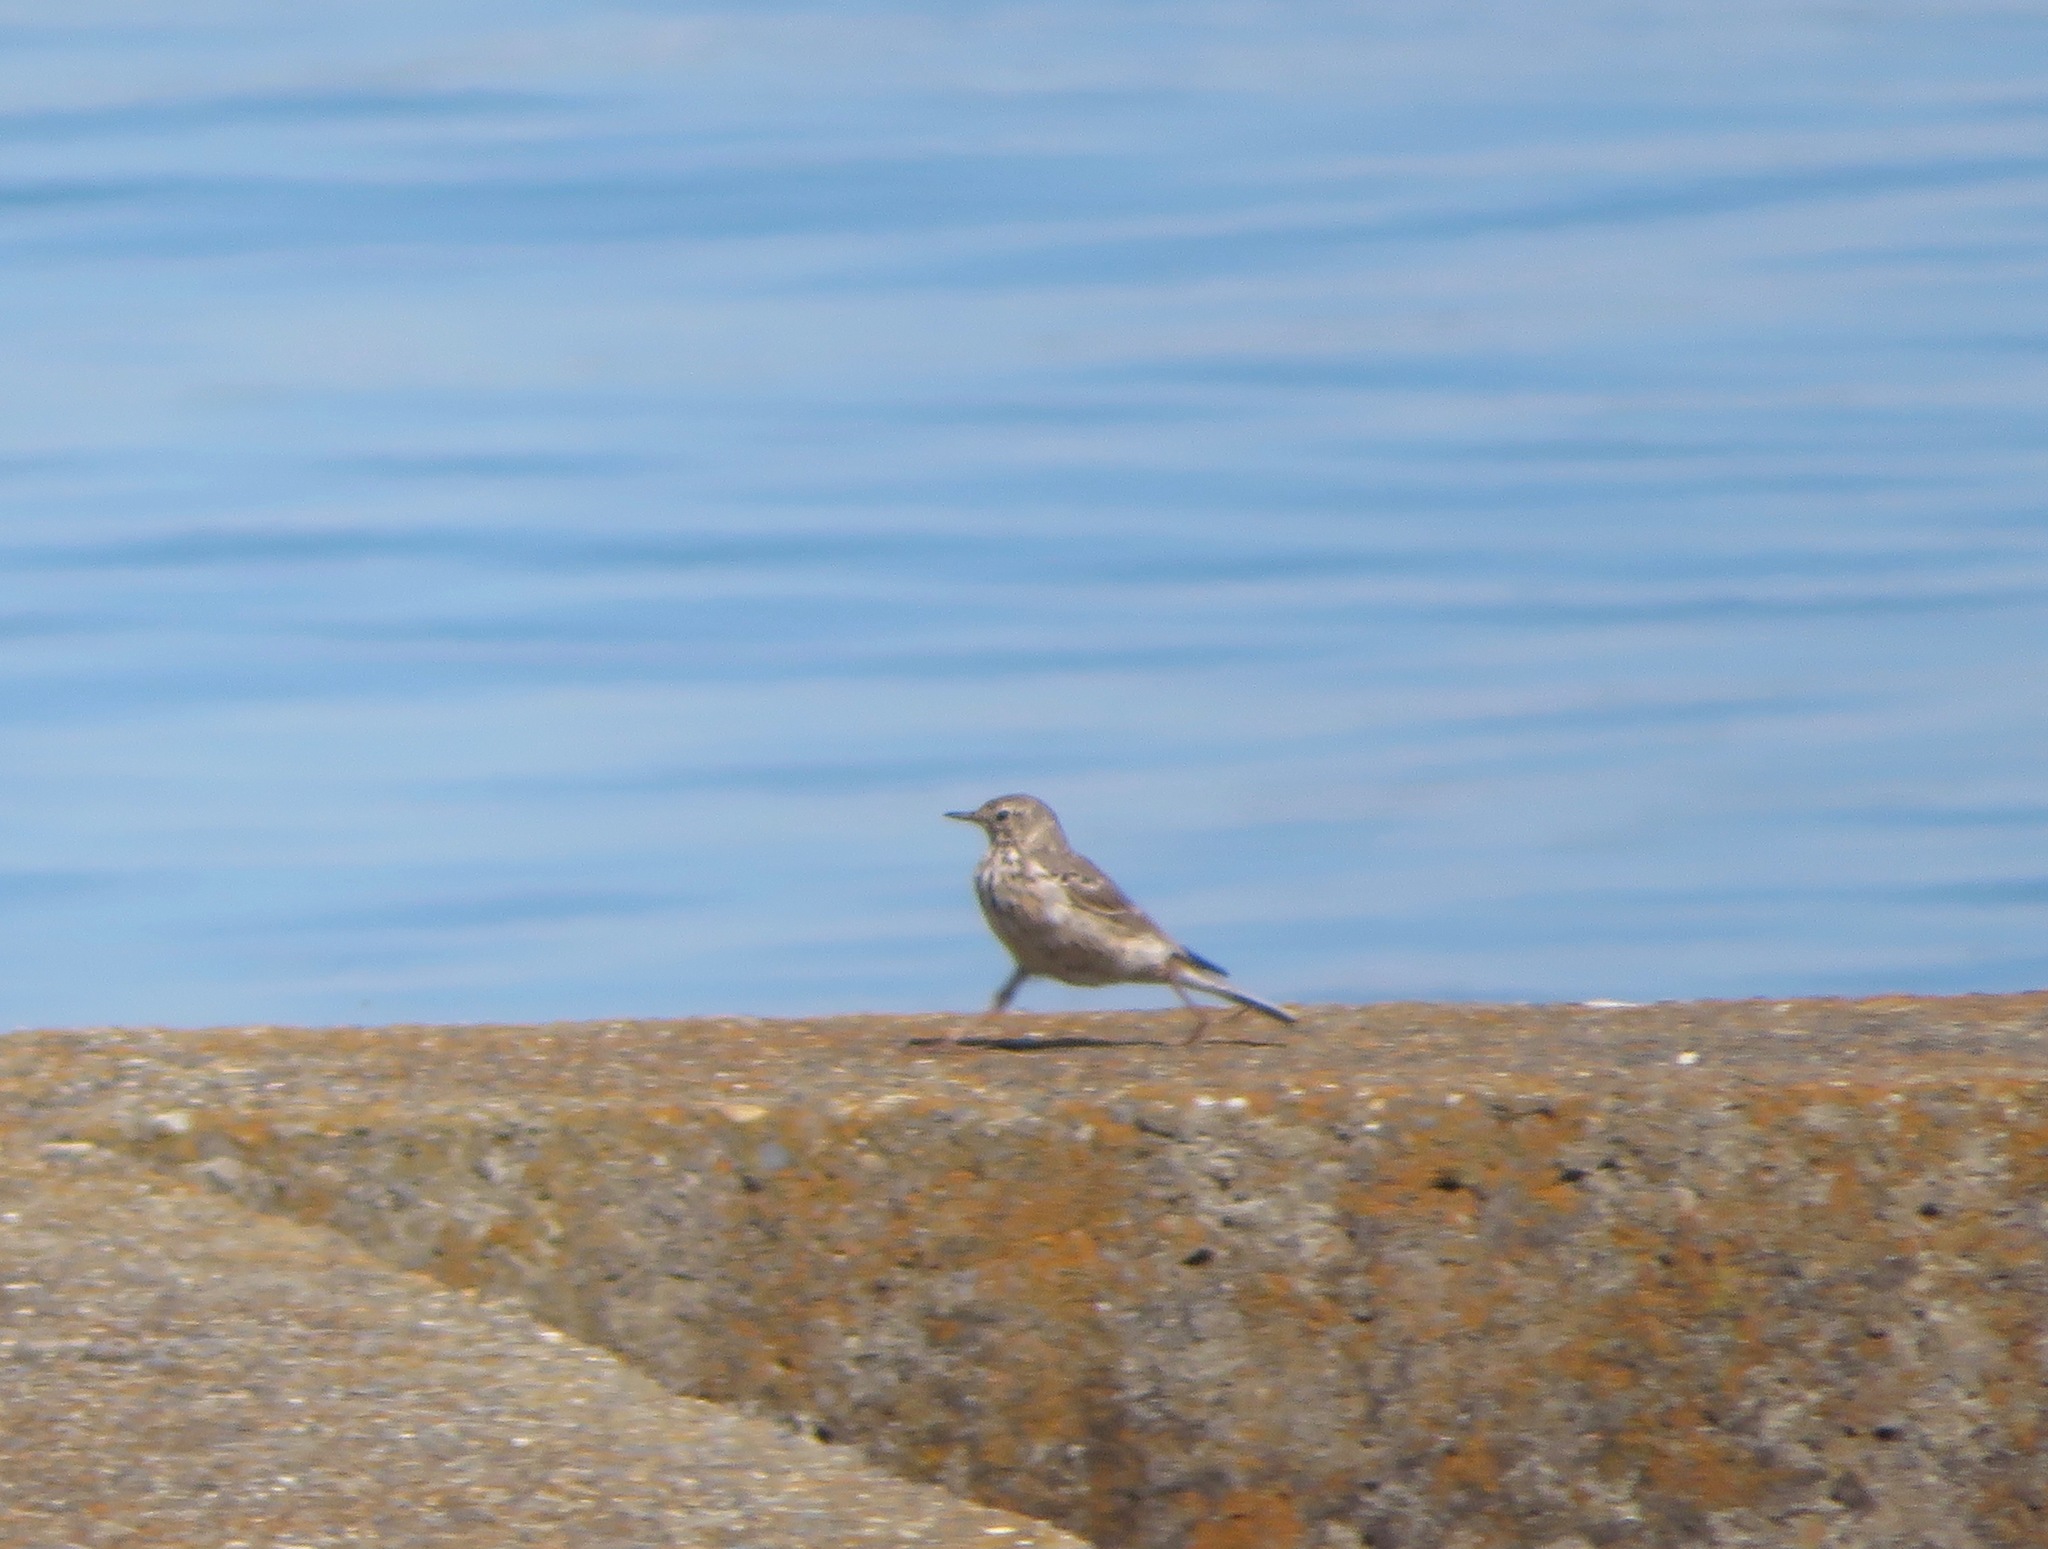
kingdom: Animalia
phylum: Chordata
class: Aves
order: Passeriformes
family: Motacillidae
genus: Anthus
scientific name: Anthus rubescens
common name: Buff-bellied pipit
